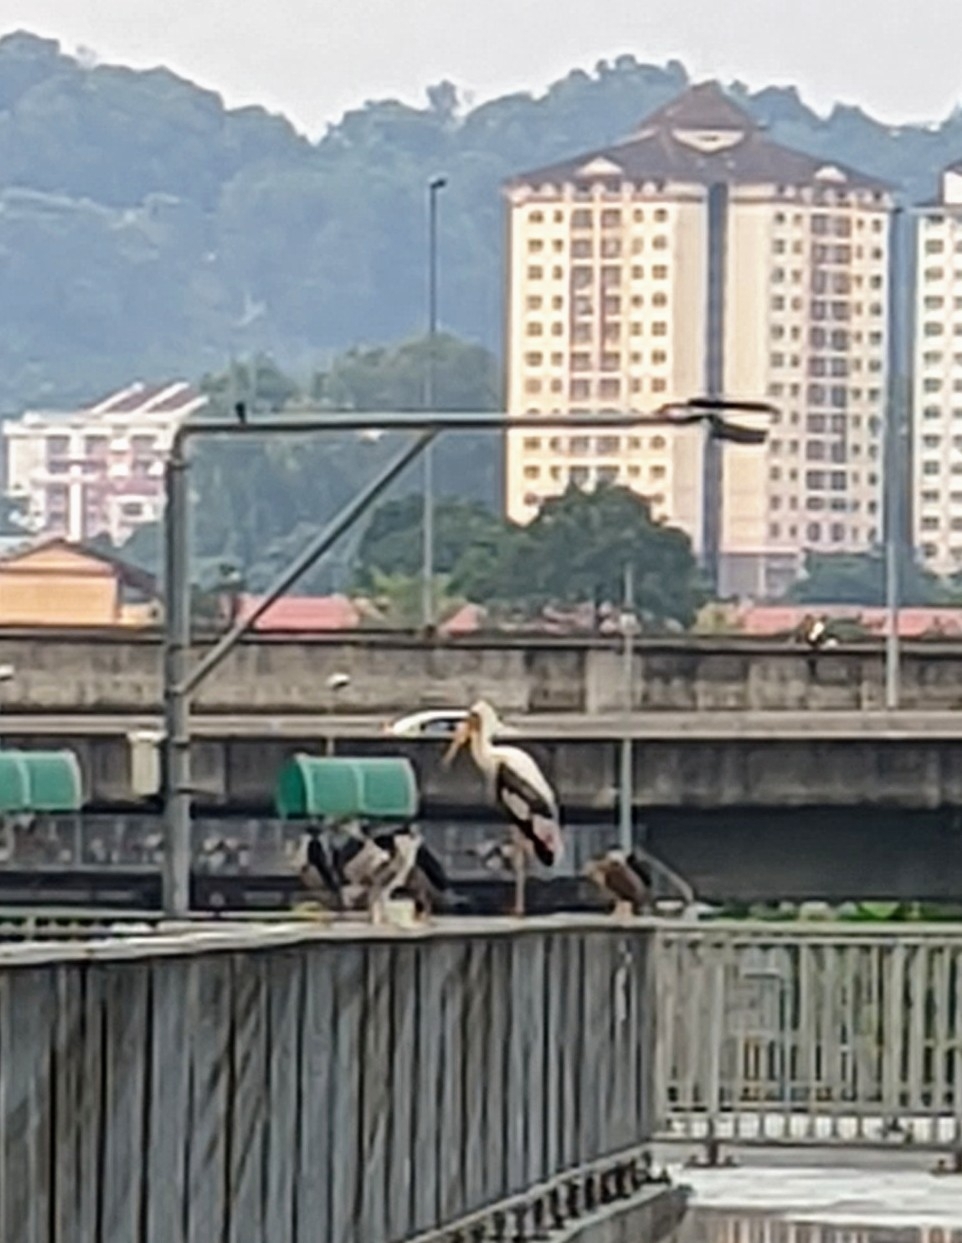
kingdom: Animalia
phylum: Chordata
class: Aves
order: Ciconiiformes
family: Ciconiidae
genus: Mycteria
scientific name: Mycteria leucocephala
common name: Painted stork
